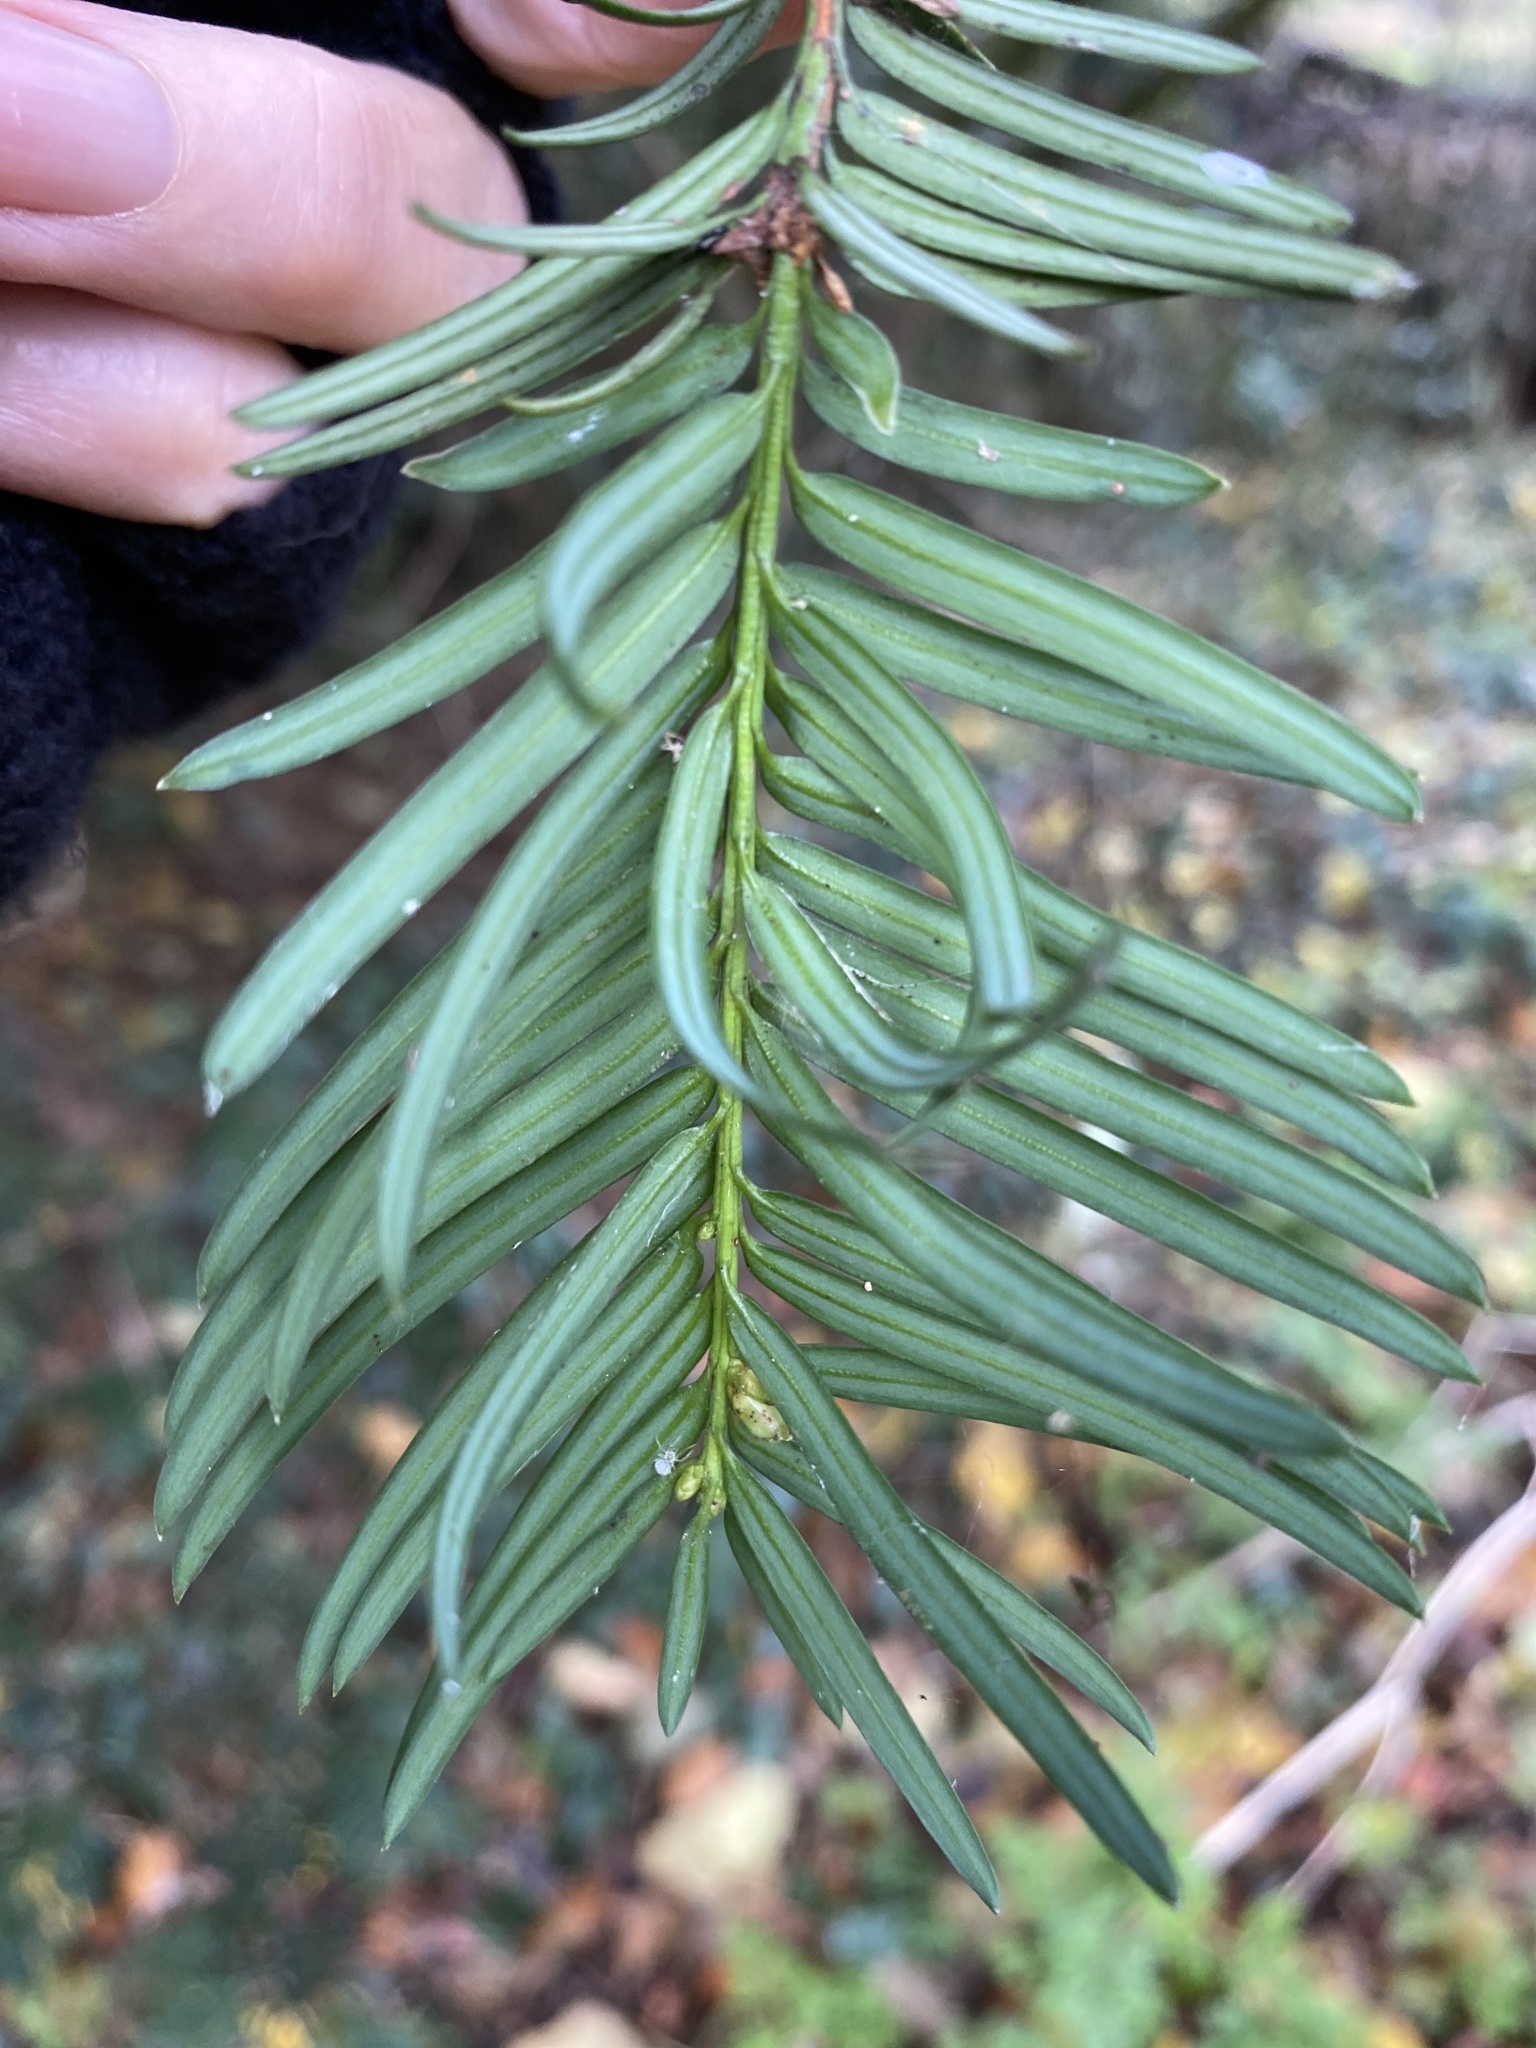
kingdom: Plantae
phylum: Tracheophyta
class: Pinopsida
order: Pinales
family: Taxaceae
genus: Taxus
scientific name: Taxus baccata
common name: Yew
